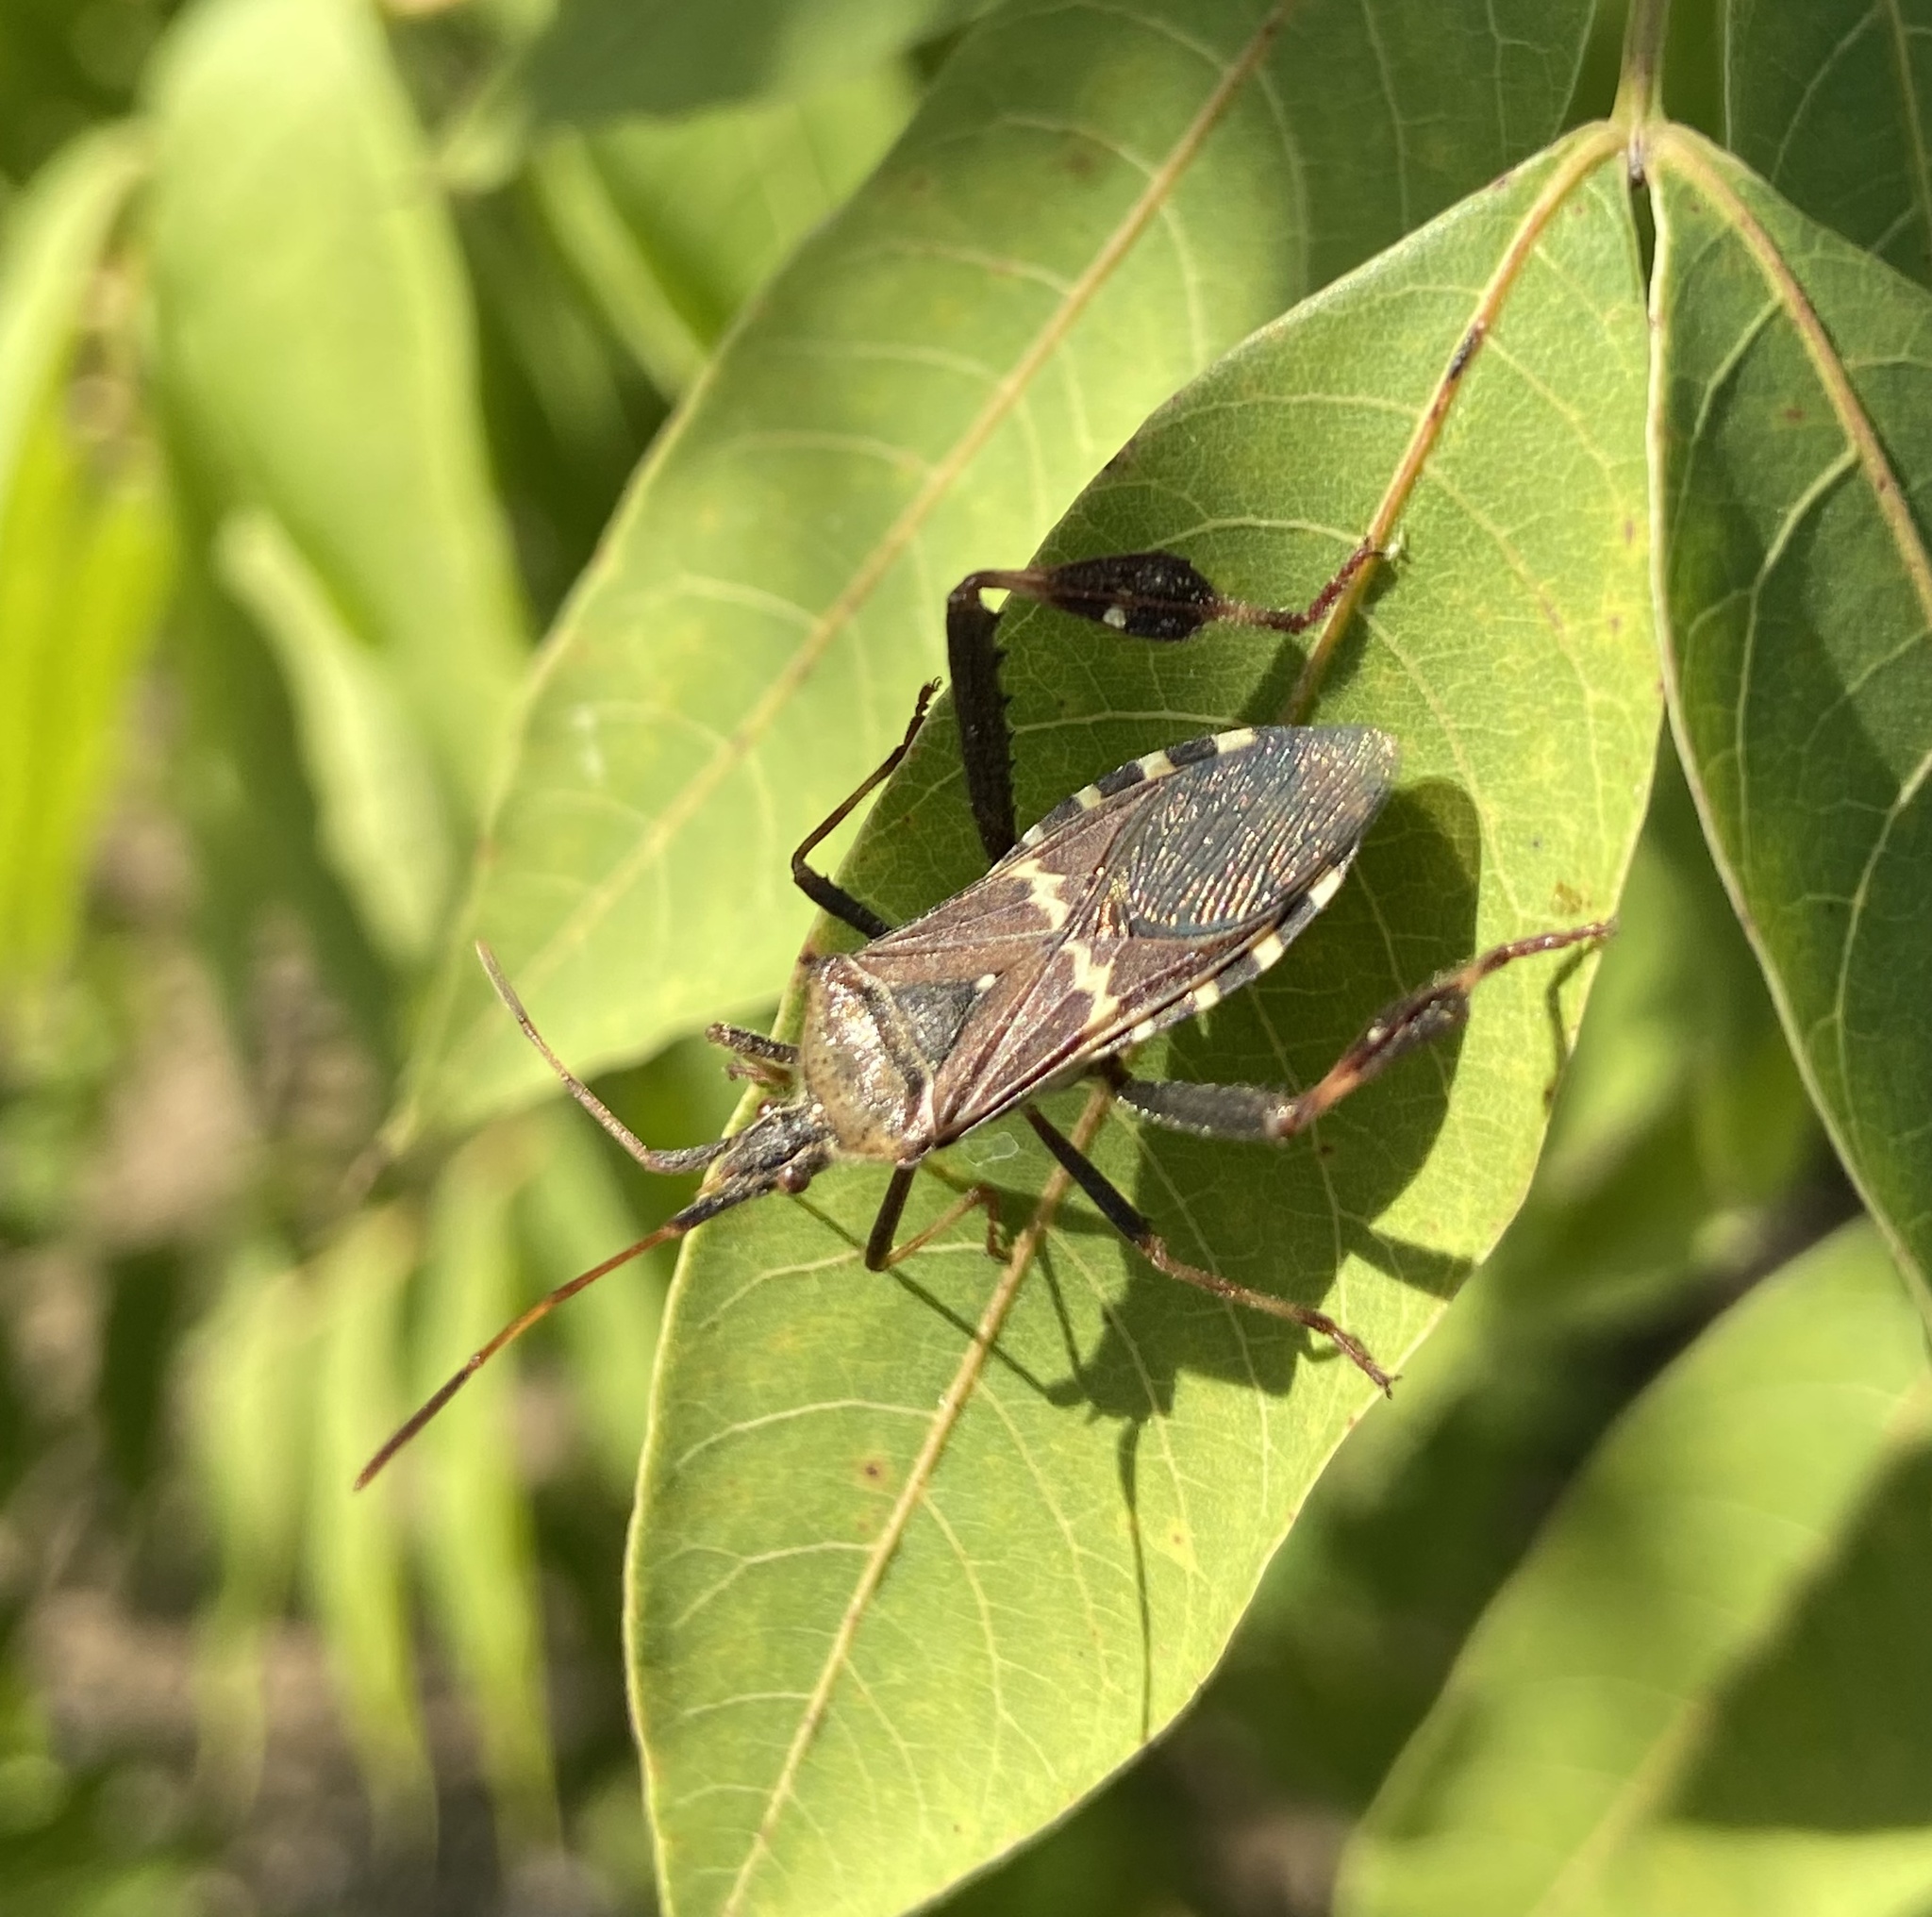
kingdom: Animalia
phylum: Arthropoda
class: Insecta
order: Hemiptera
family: Coreidae
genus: Leptoglossus
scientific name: Leptoglossus clypealis
